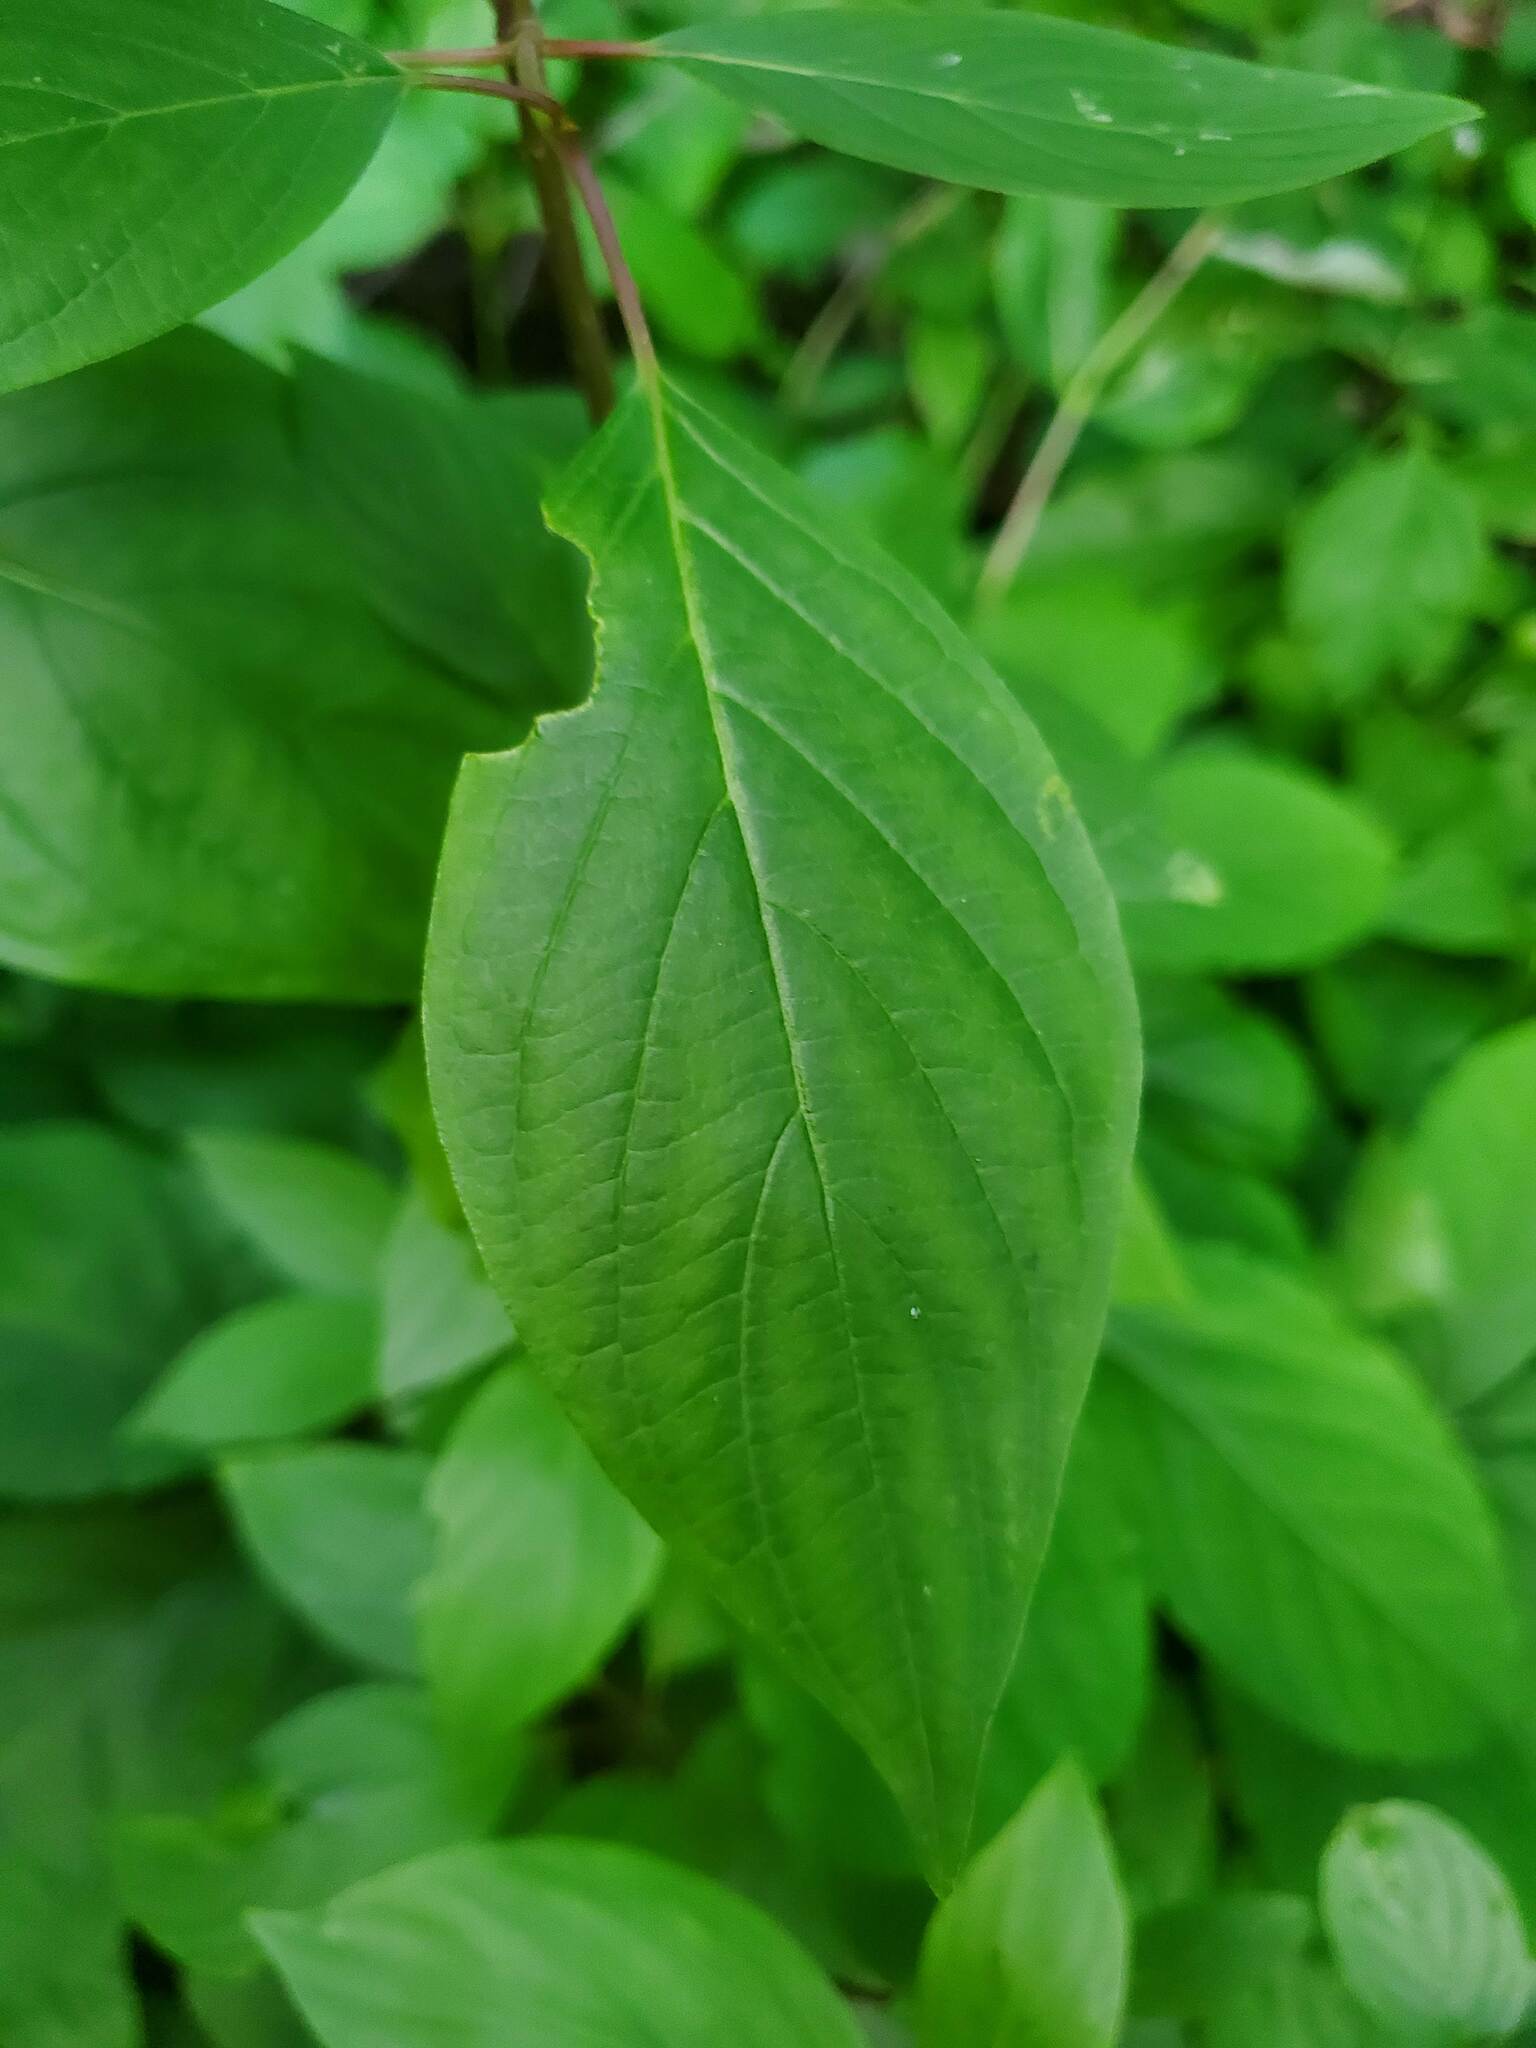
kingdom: Plantae
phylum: Tracheophyta
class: Magnoliopsida
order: Cornales
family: Cornaceae
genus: Cornus
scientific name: Cornus sericea
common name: Red-osier dogwood
